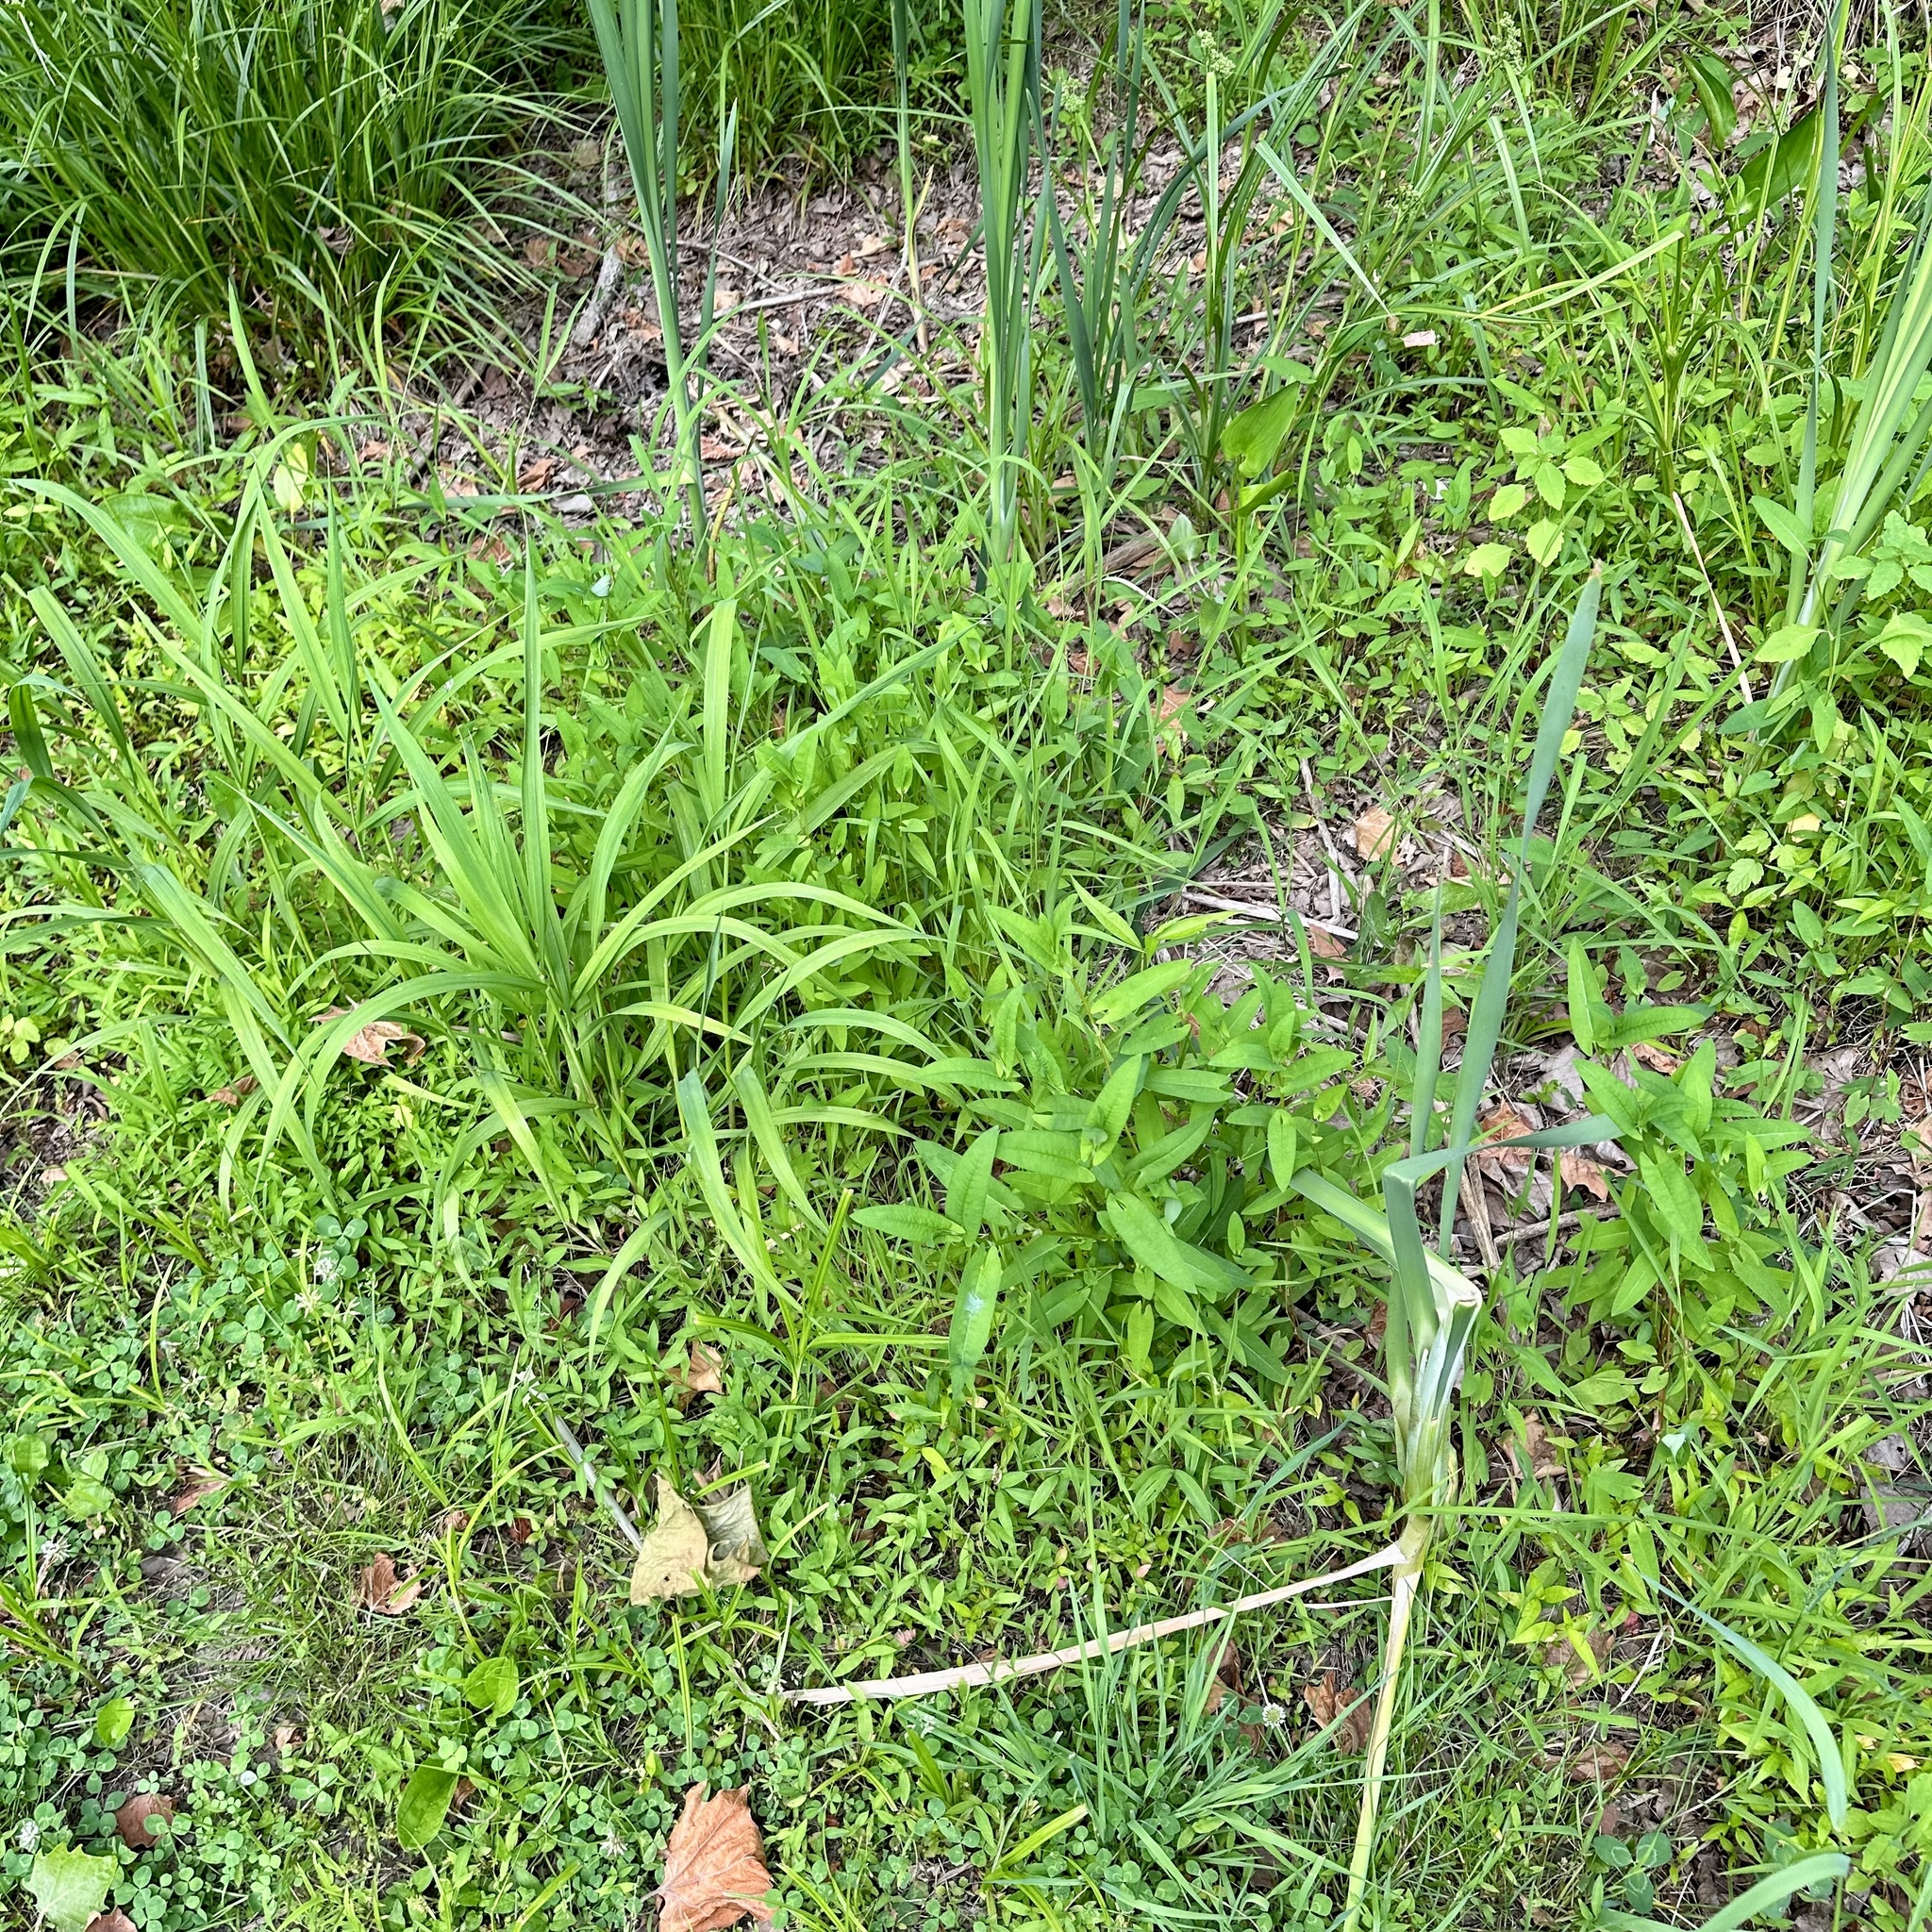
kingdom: Plantae
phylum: Tracheophyta
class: Magnoliopsida
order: Caryophyllales
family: Polygonaceae
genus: Persicaria
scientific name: Persicaria sagittata
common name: American tearthumb
